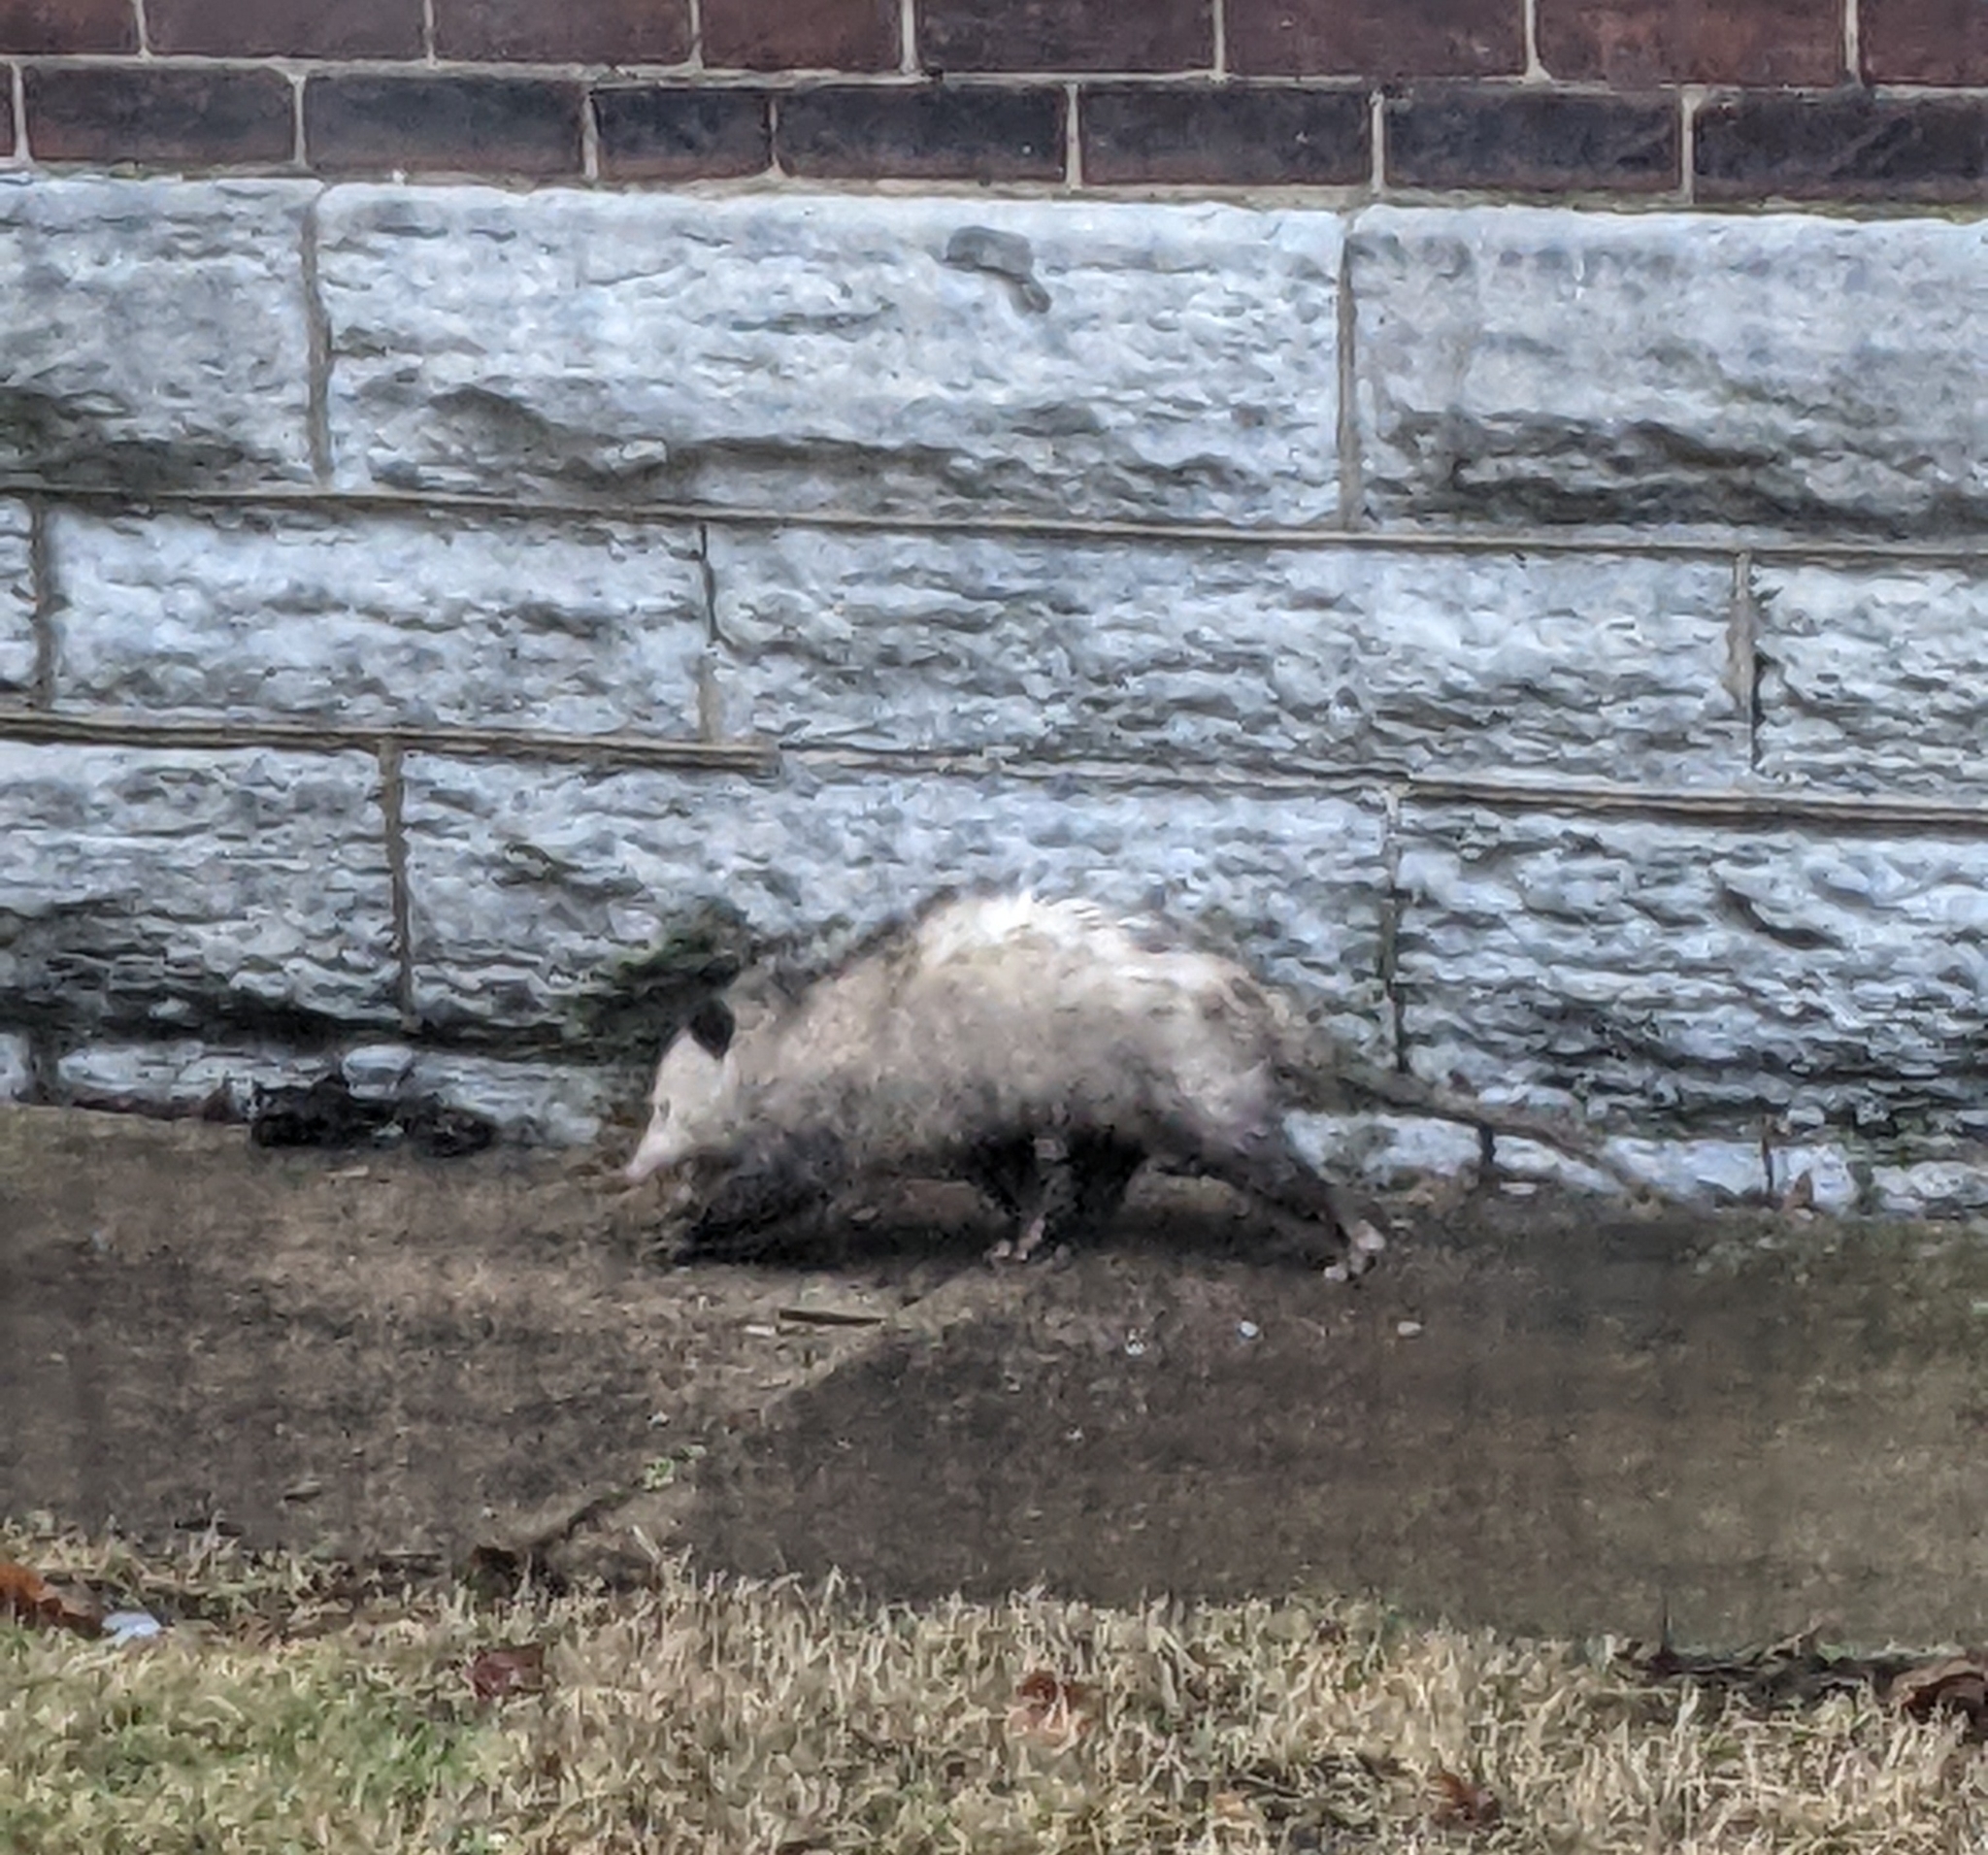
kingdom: Animalia
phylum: Chordata
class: Mammalia
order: Didelphimorphia
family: Didelphidae
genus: Didelphis
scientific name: Didelphis virginiana
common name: Virginia opossum
